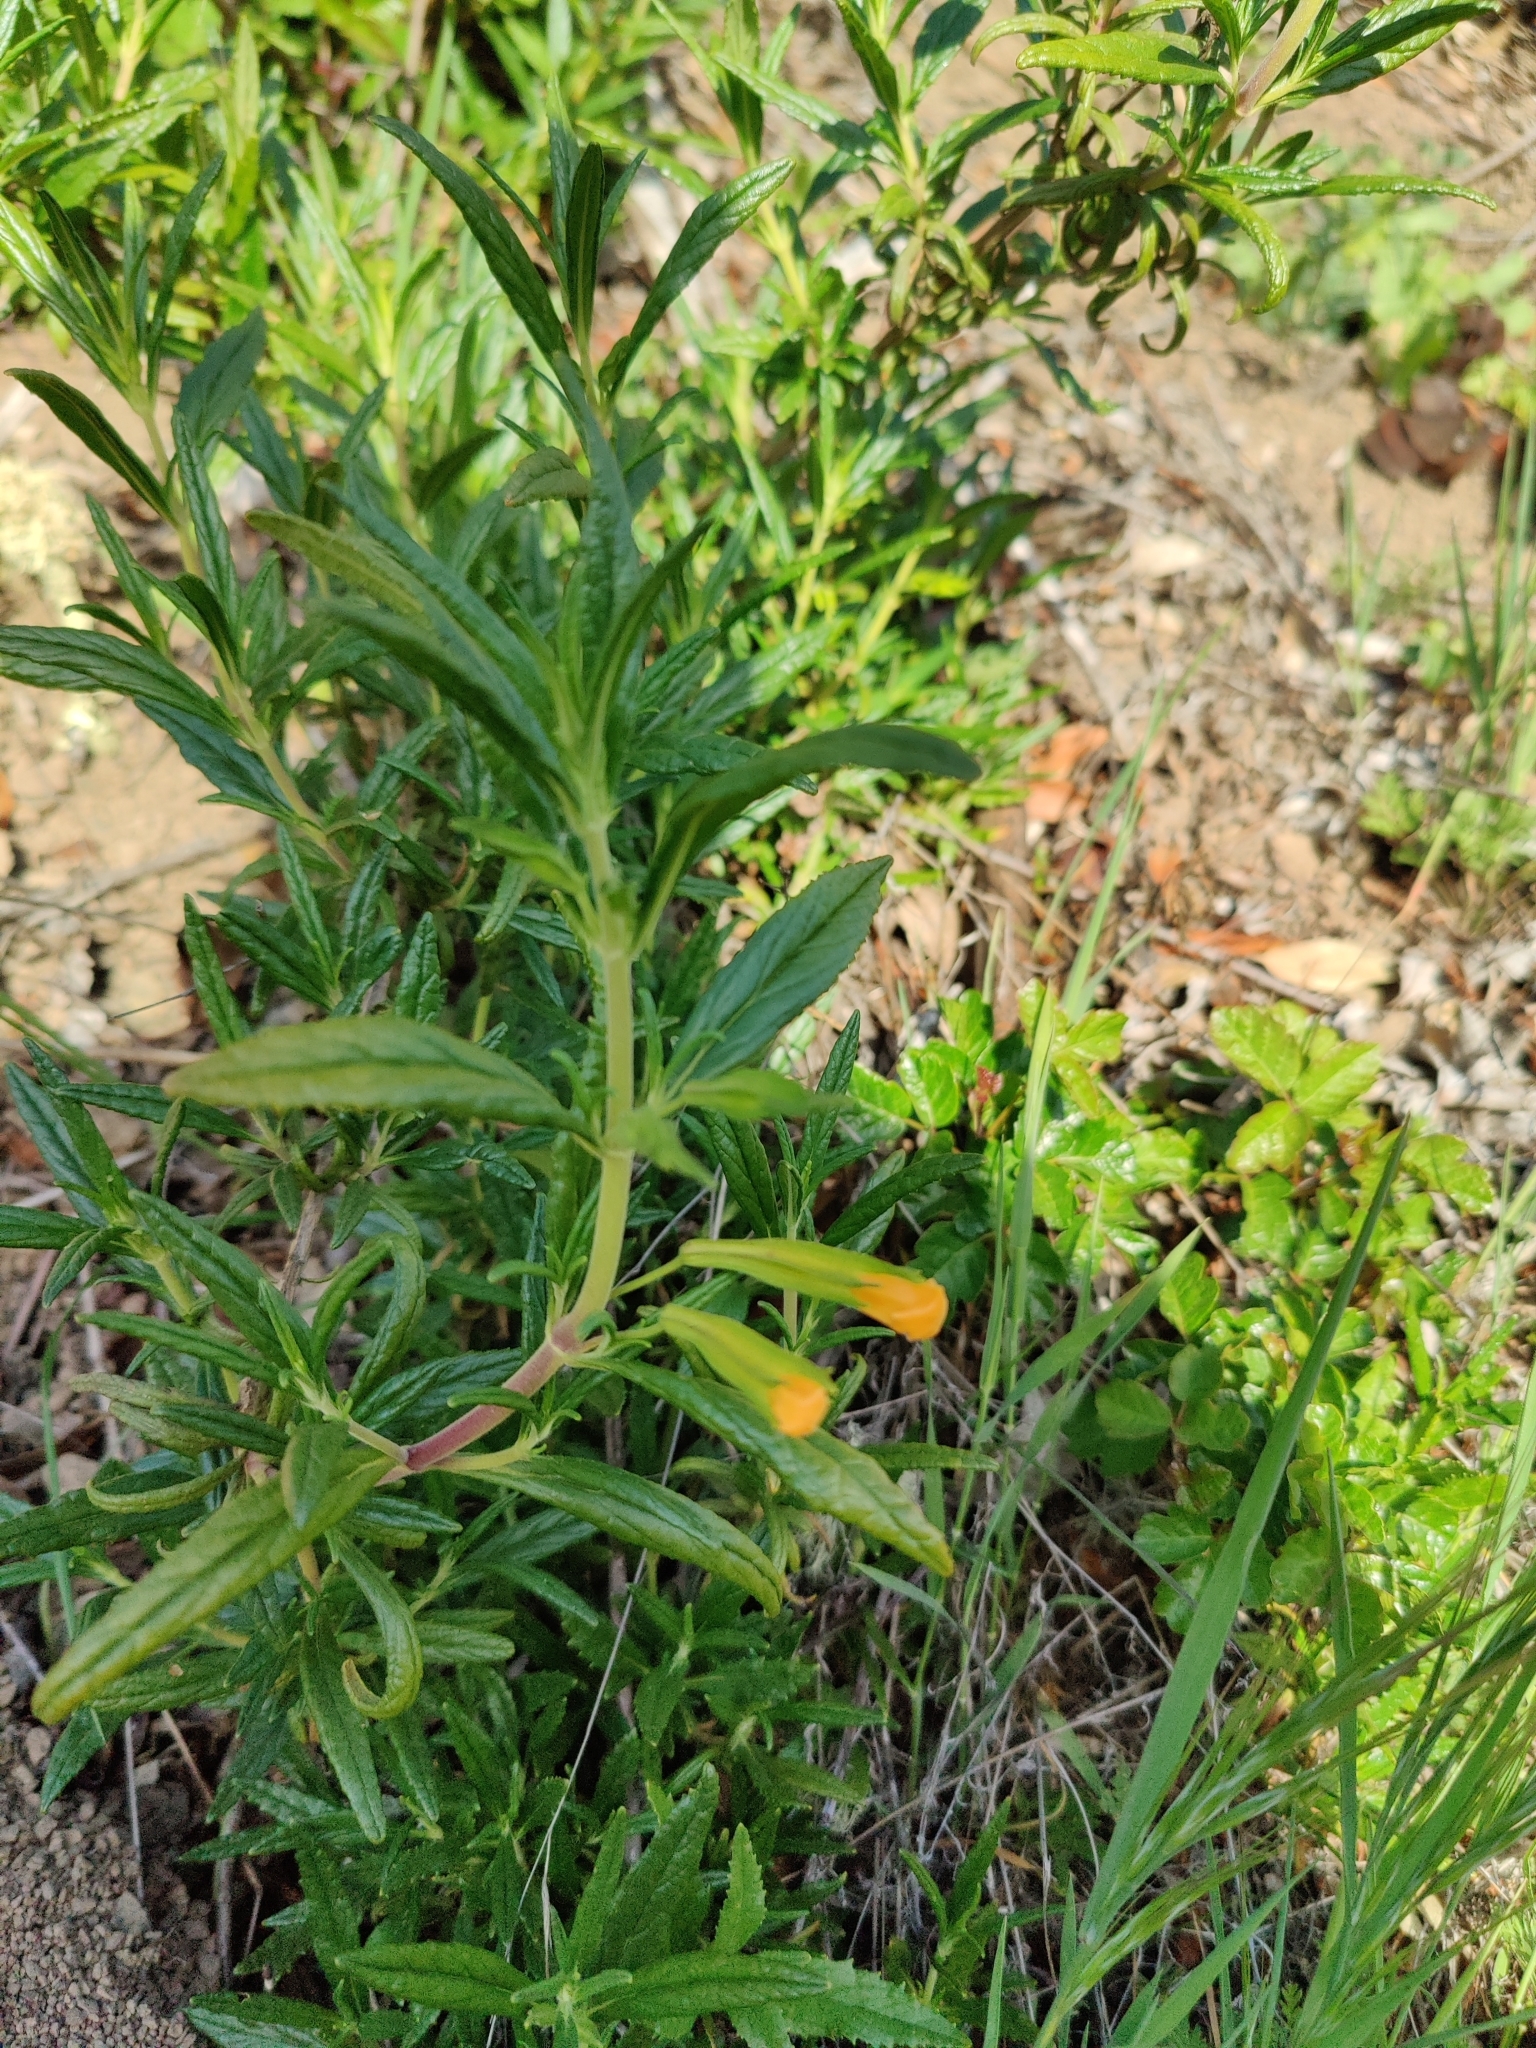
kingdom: Plantae
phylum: Tracheophyta
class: Magnoliopsida
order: Lamiales
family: Phrymaceae
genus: Diplacus
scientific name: Diplacus aurantiacus
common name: Bush monkey-flower
